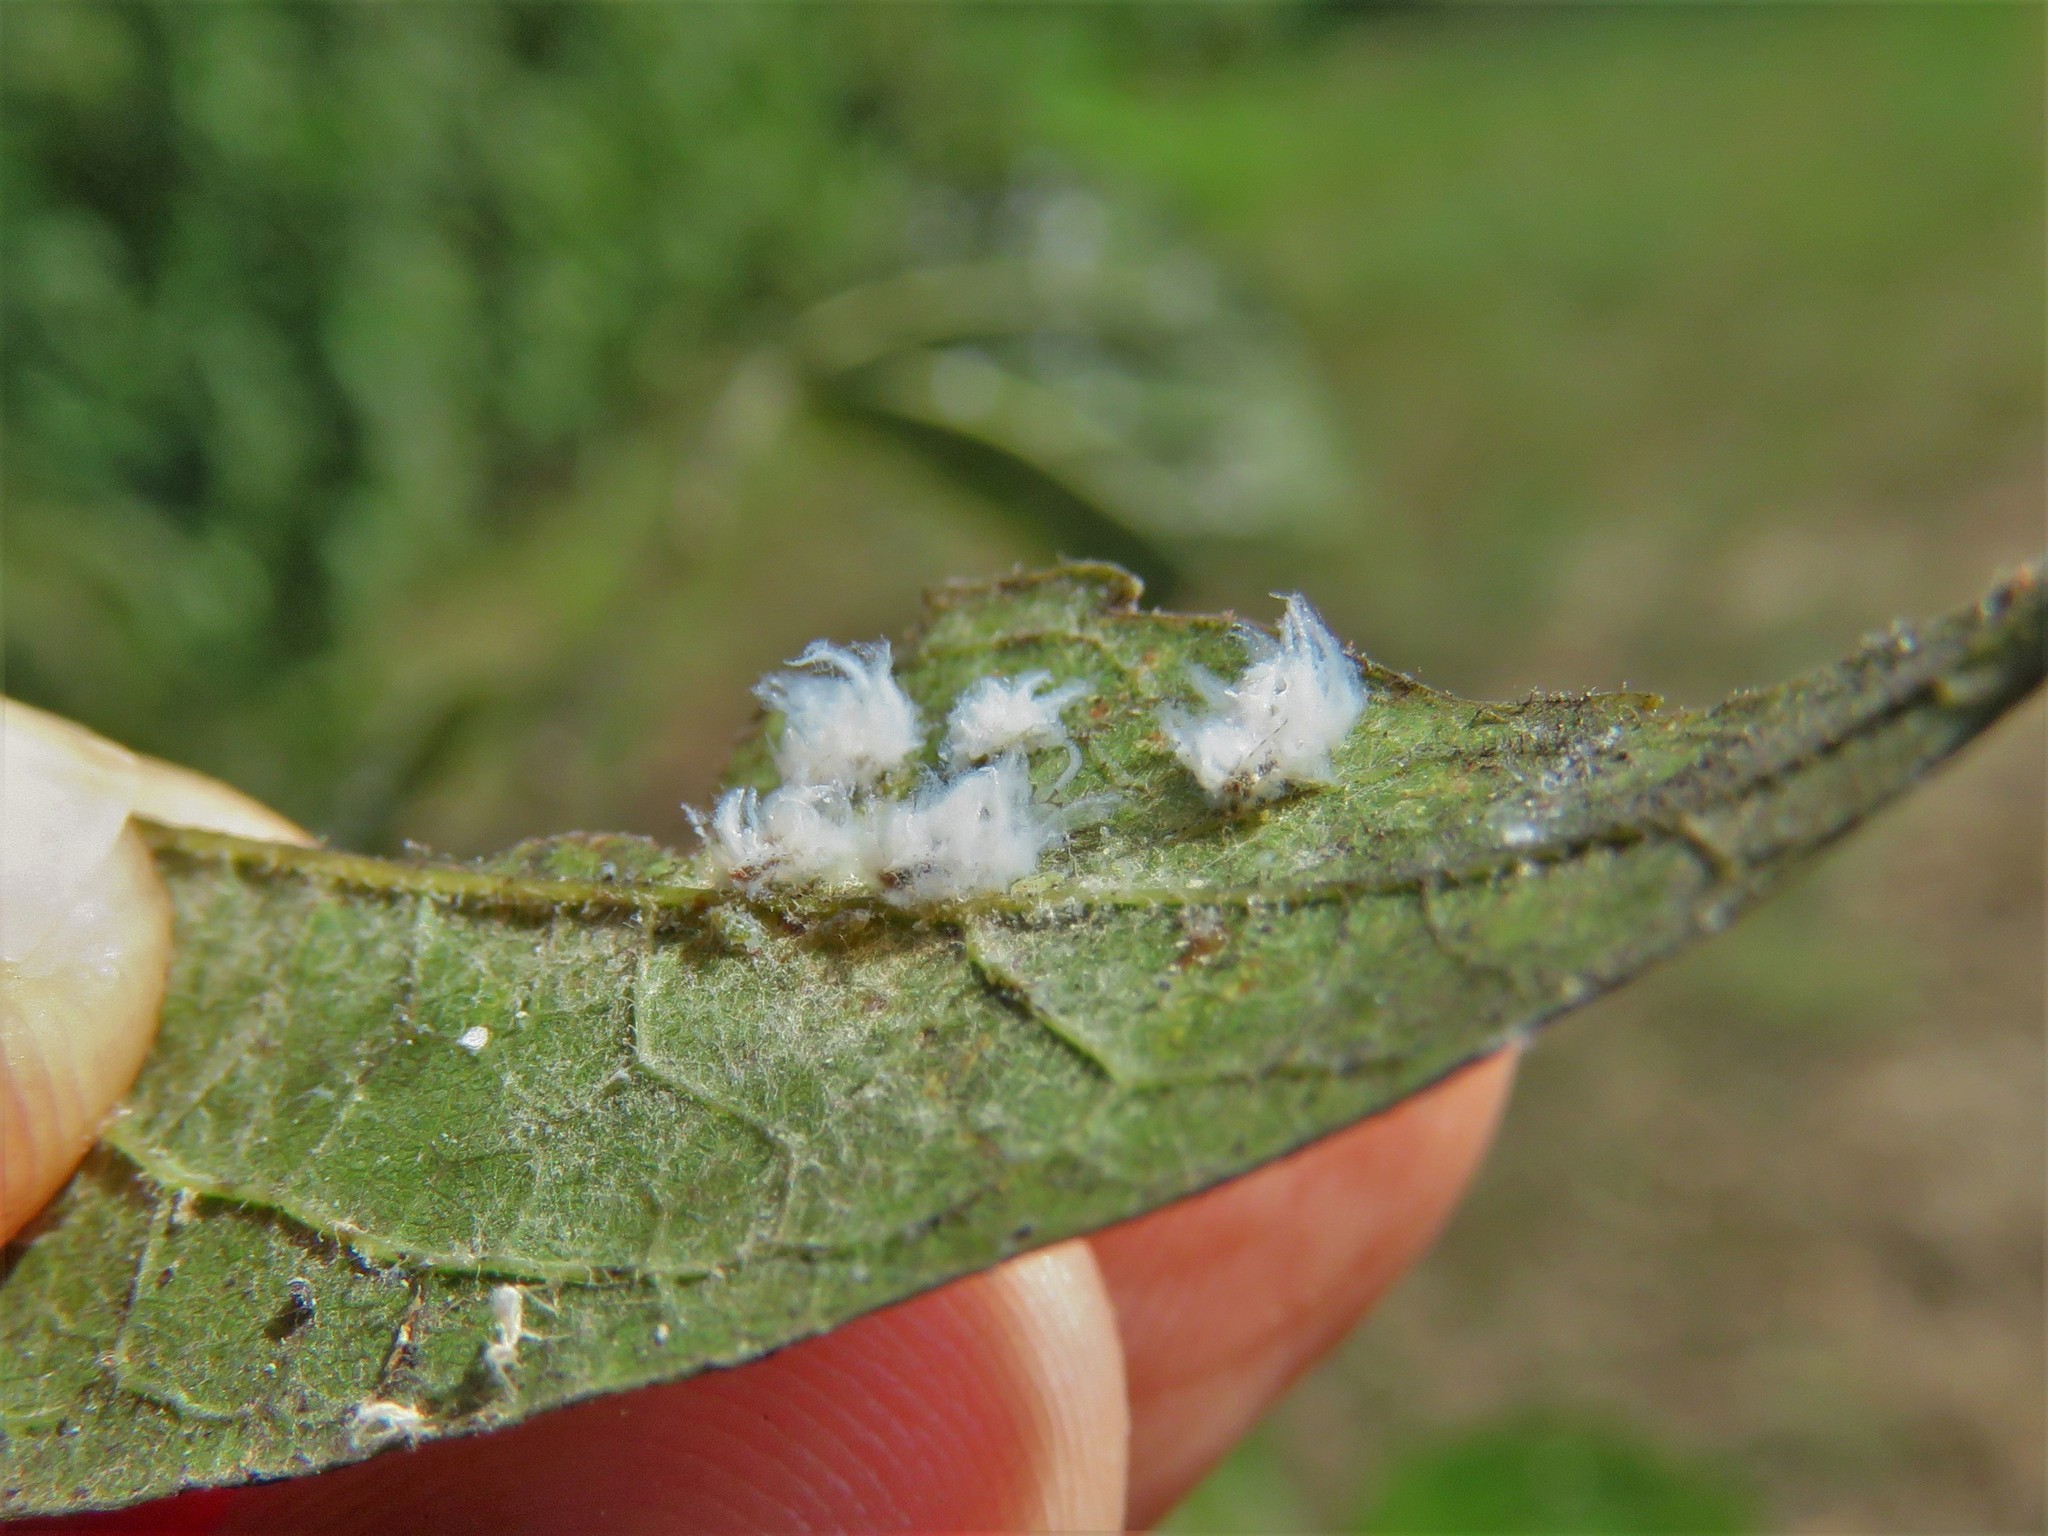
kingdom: Animalia
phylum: Arthropoda
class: Insecta
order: Hemiptera
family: Aphididae
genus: Shivaphis
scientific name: Shivaphis celti
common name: Asian wooly hackberry aphid
